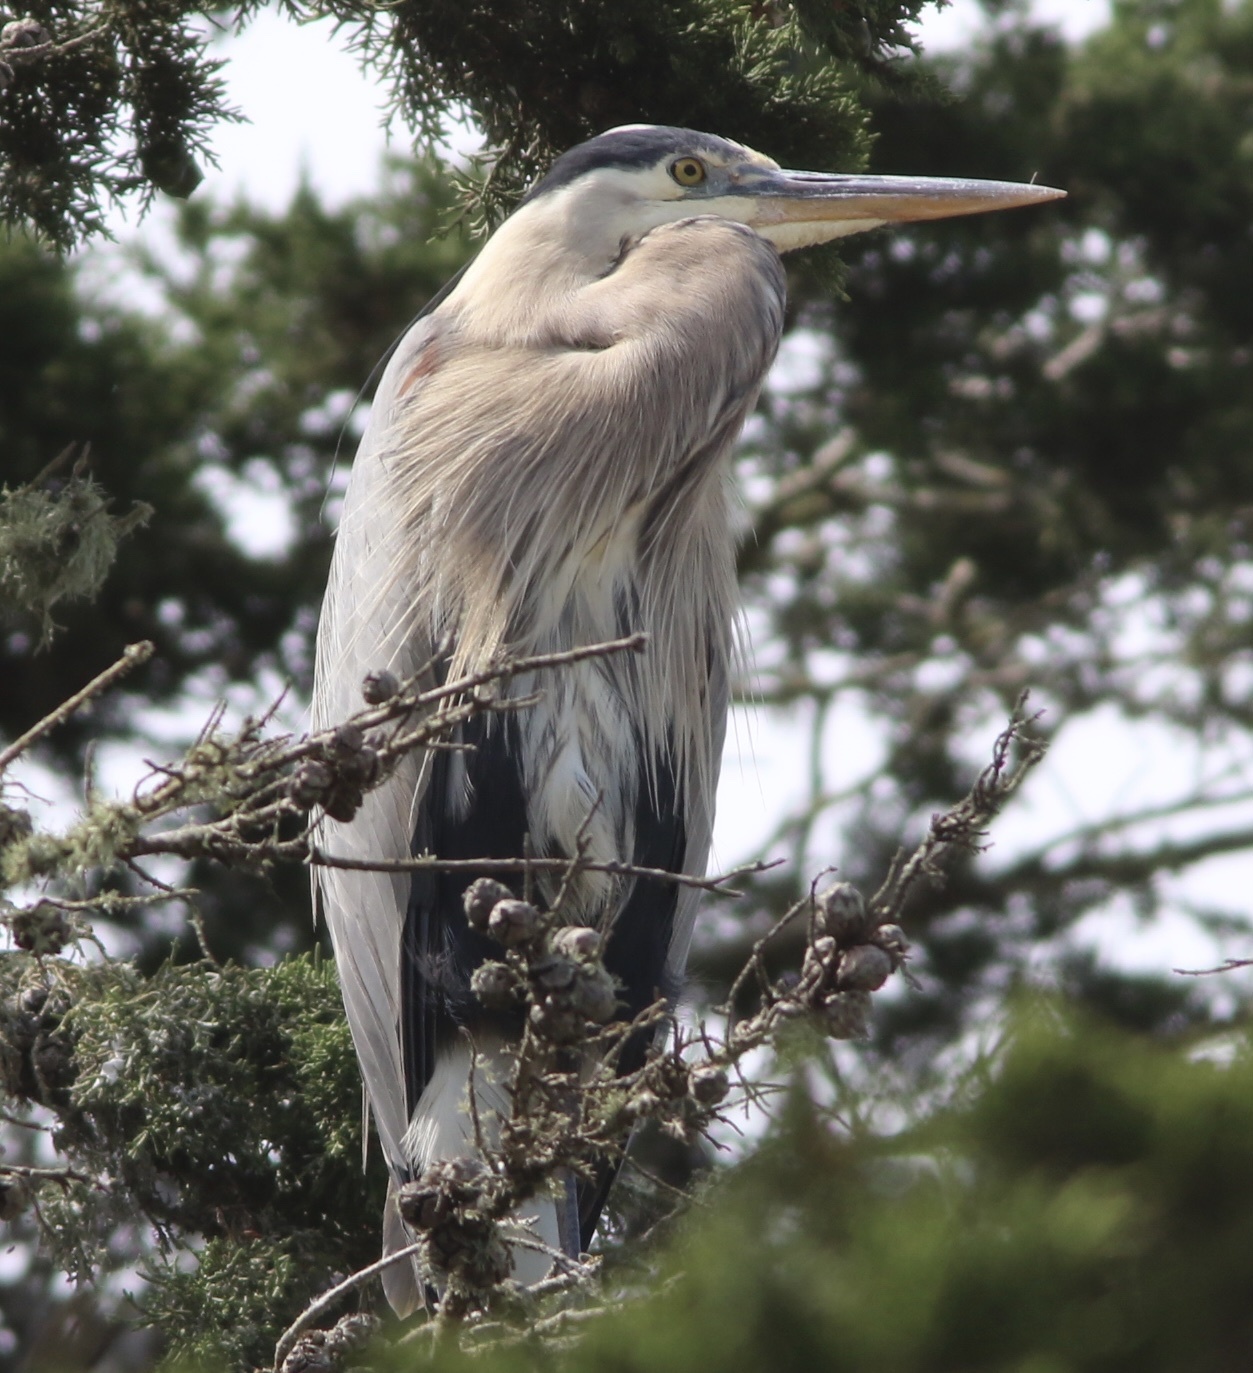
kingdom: Animalia
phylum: Chordata
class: Aves
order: Pelecaniformes
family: Ardeidae
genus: Ardea
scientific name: Ardea herodias
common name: Great blue heron
